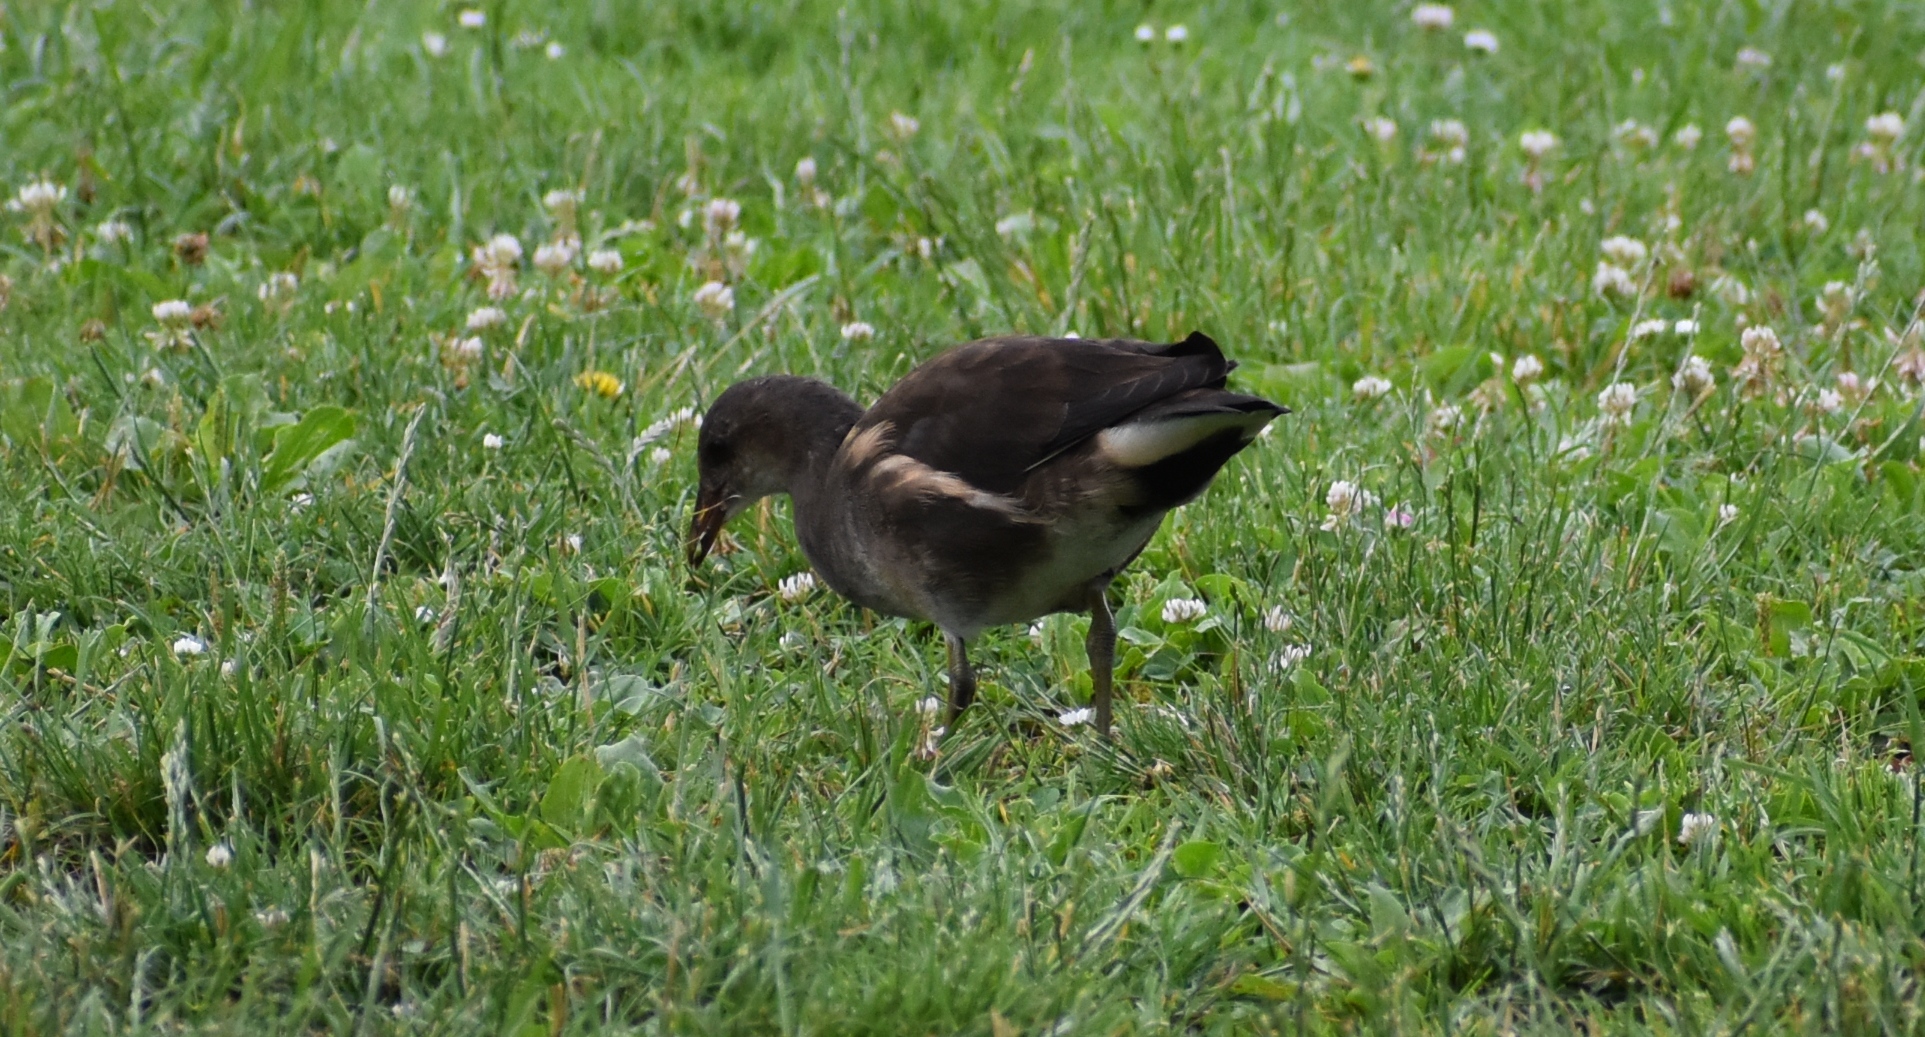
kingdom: Animalia
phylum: Chordata
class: Aves
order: Gruiformes
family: Rallidae
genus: Gallinula
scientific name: Gallinula chloropus
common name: Common moorhen
